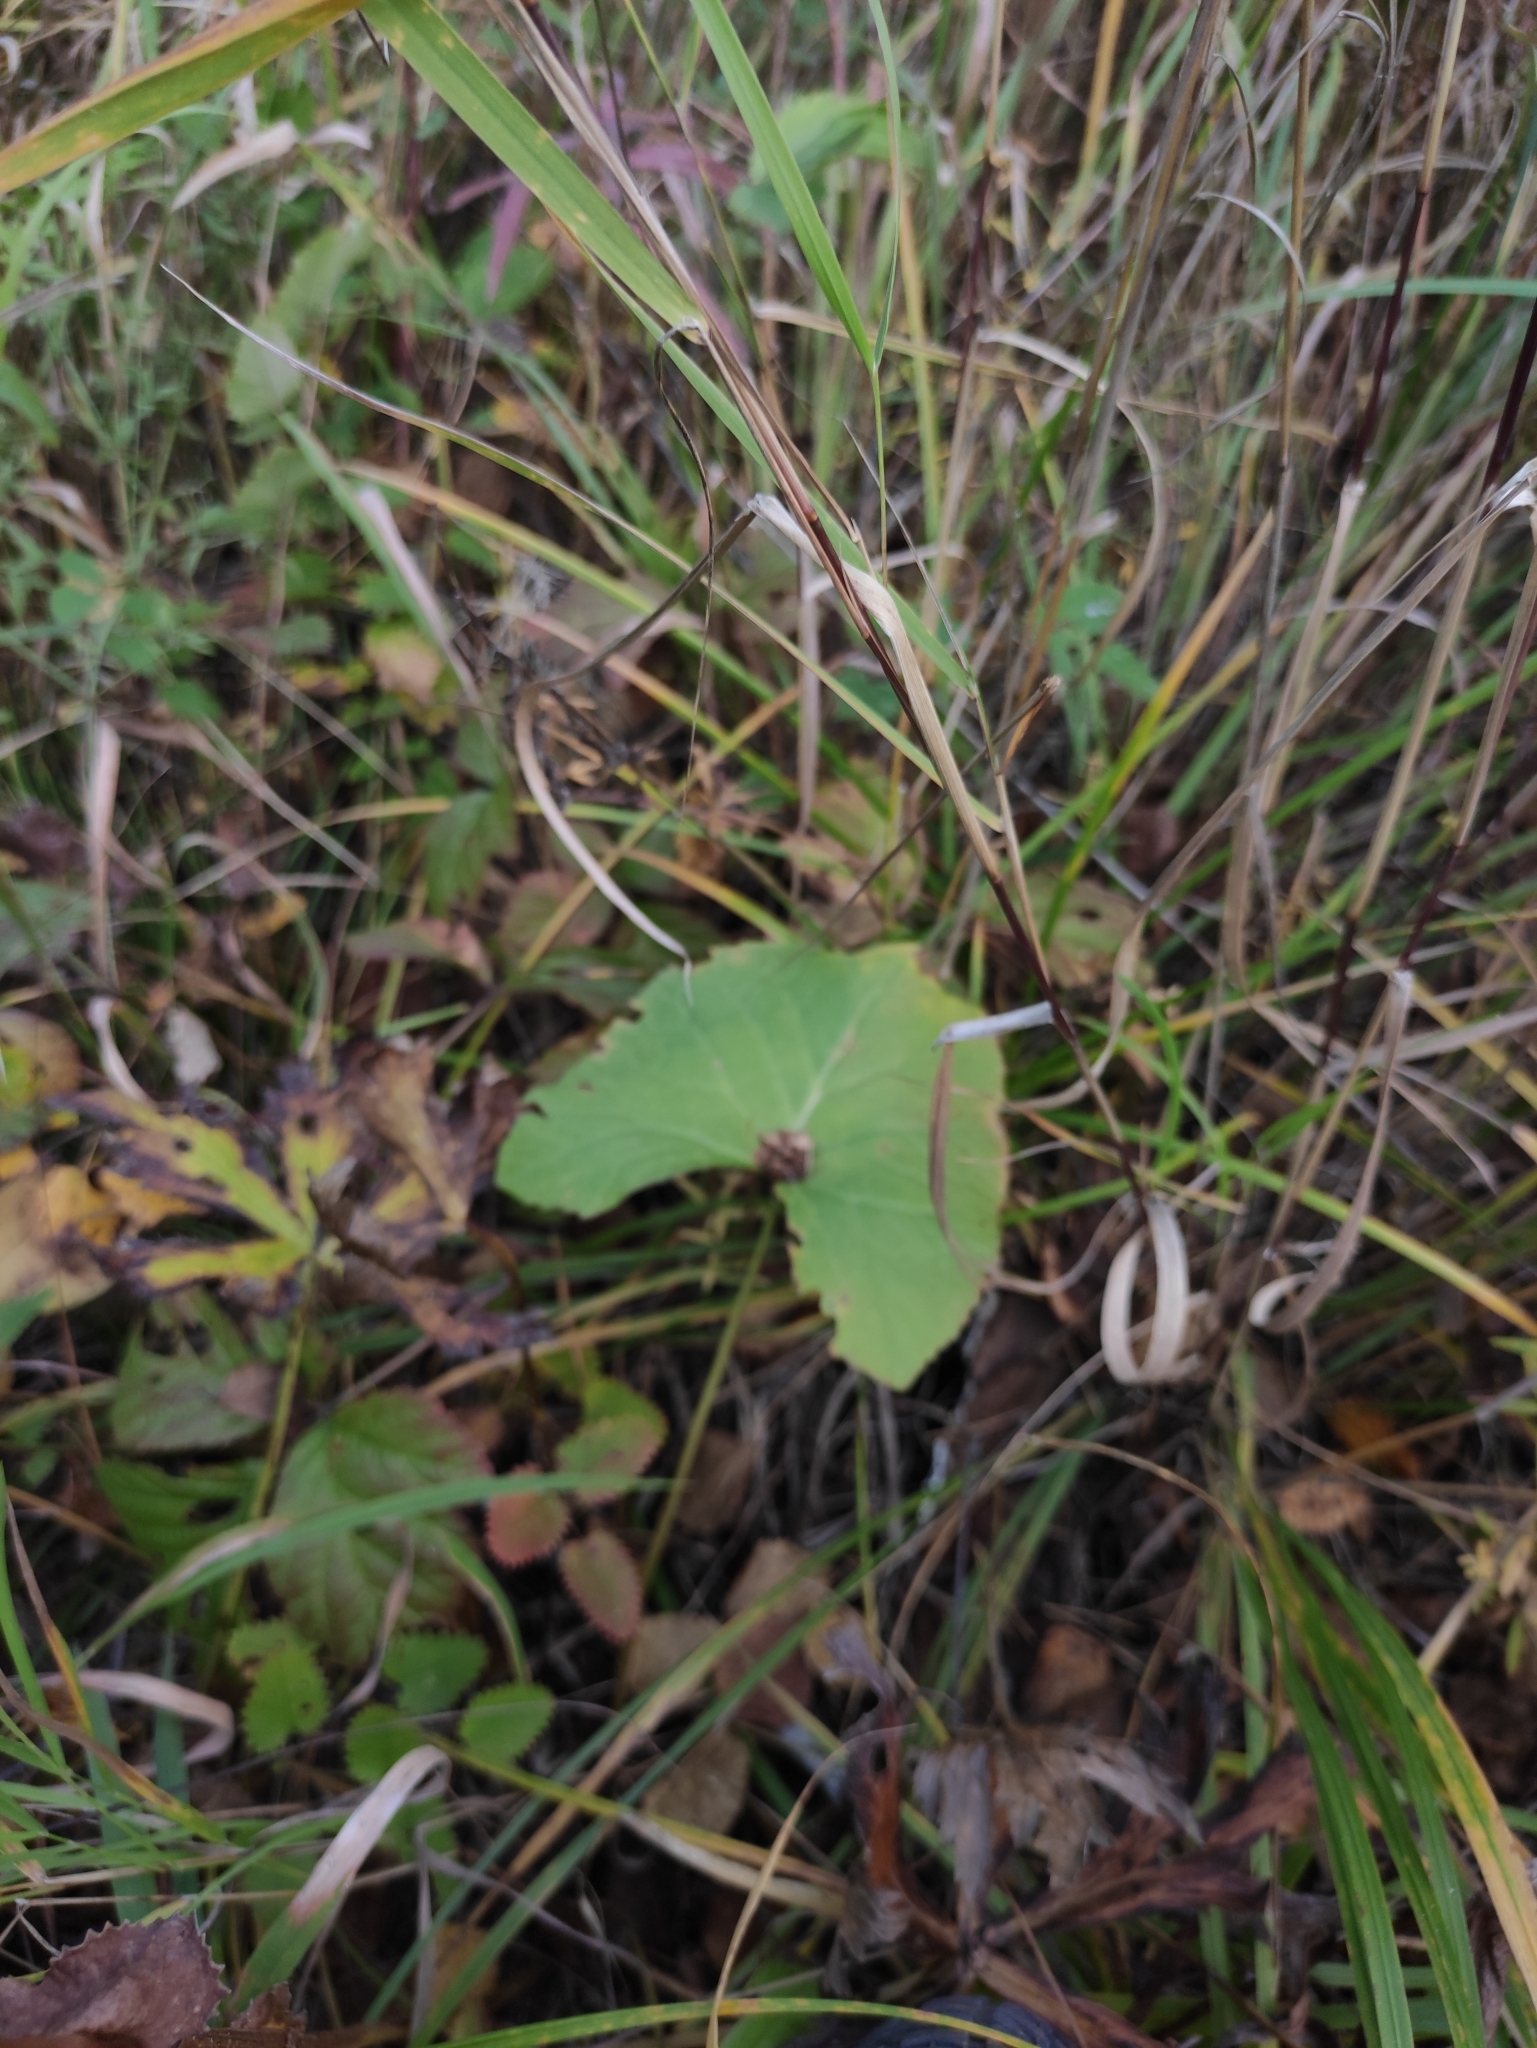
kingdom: Plantae
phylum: Tracheophyta
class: Magnoliopsida
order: Asterales
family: Asteraceae
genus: Ligularia
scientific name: Ligularia sibirica
